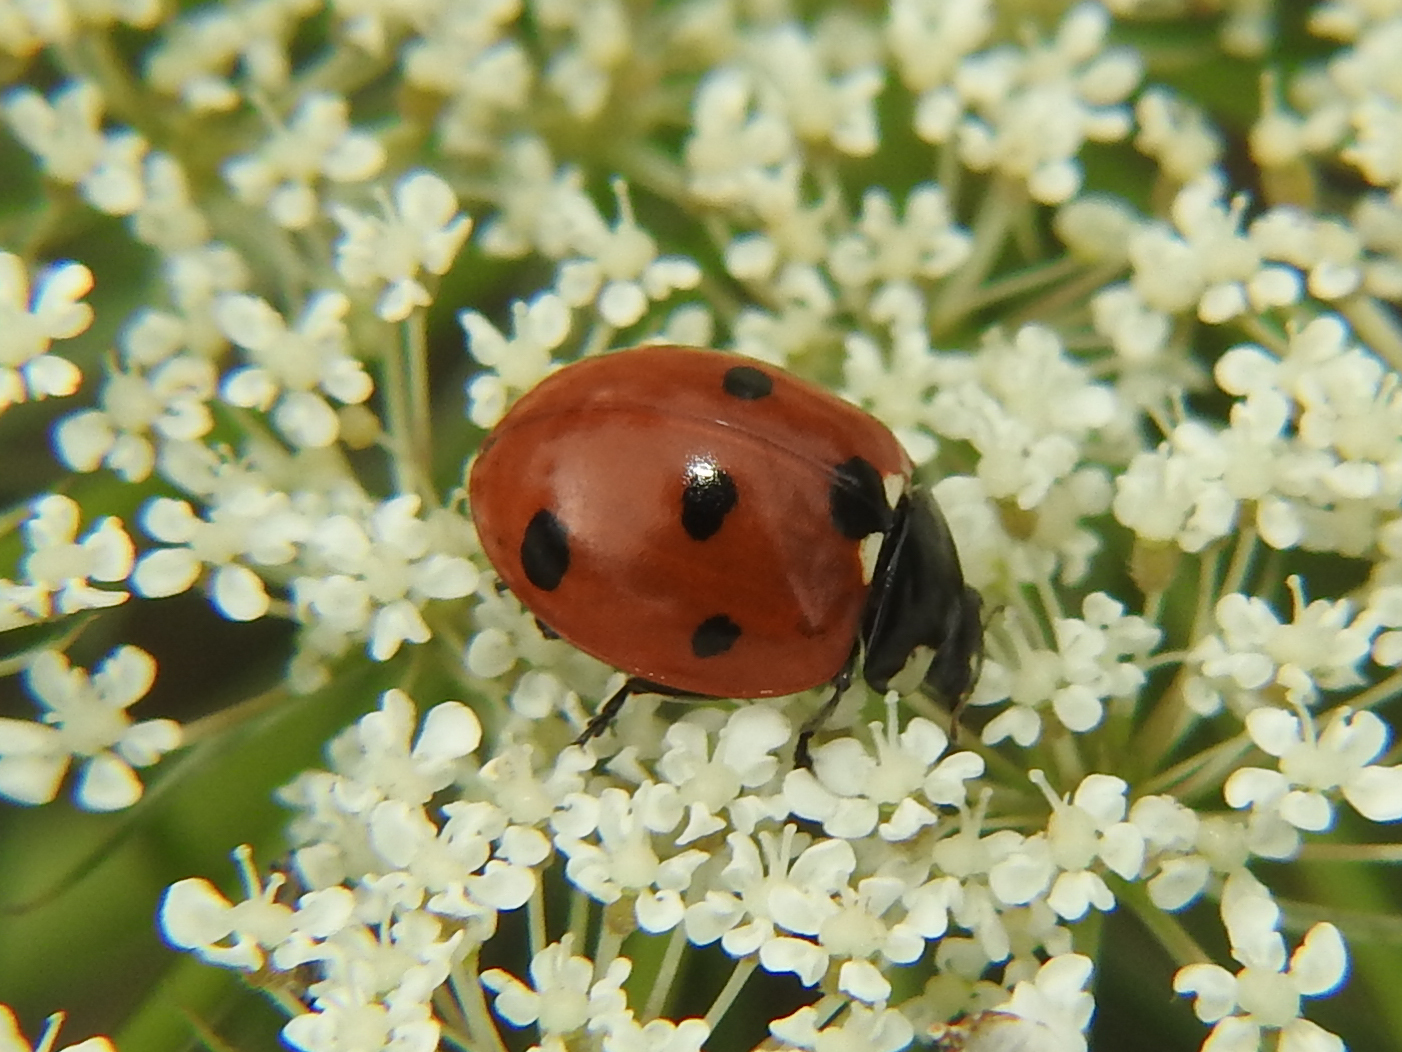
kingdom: Animalia
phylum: Arthropoda
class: Insecta
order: Coleoptera
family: Coccinellidae
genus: Coccinella
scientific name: Coccinella septempunctata
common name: Sevenspotted lady beetle
